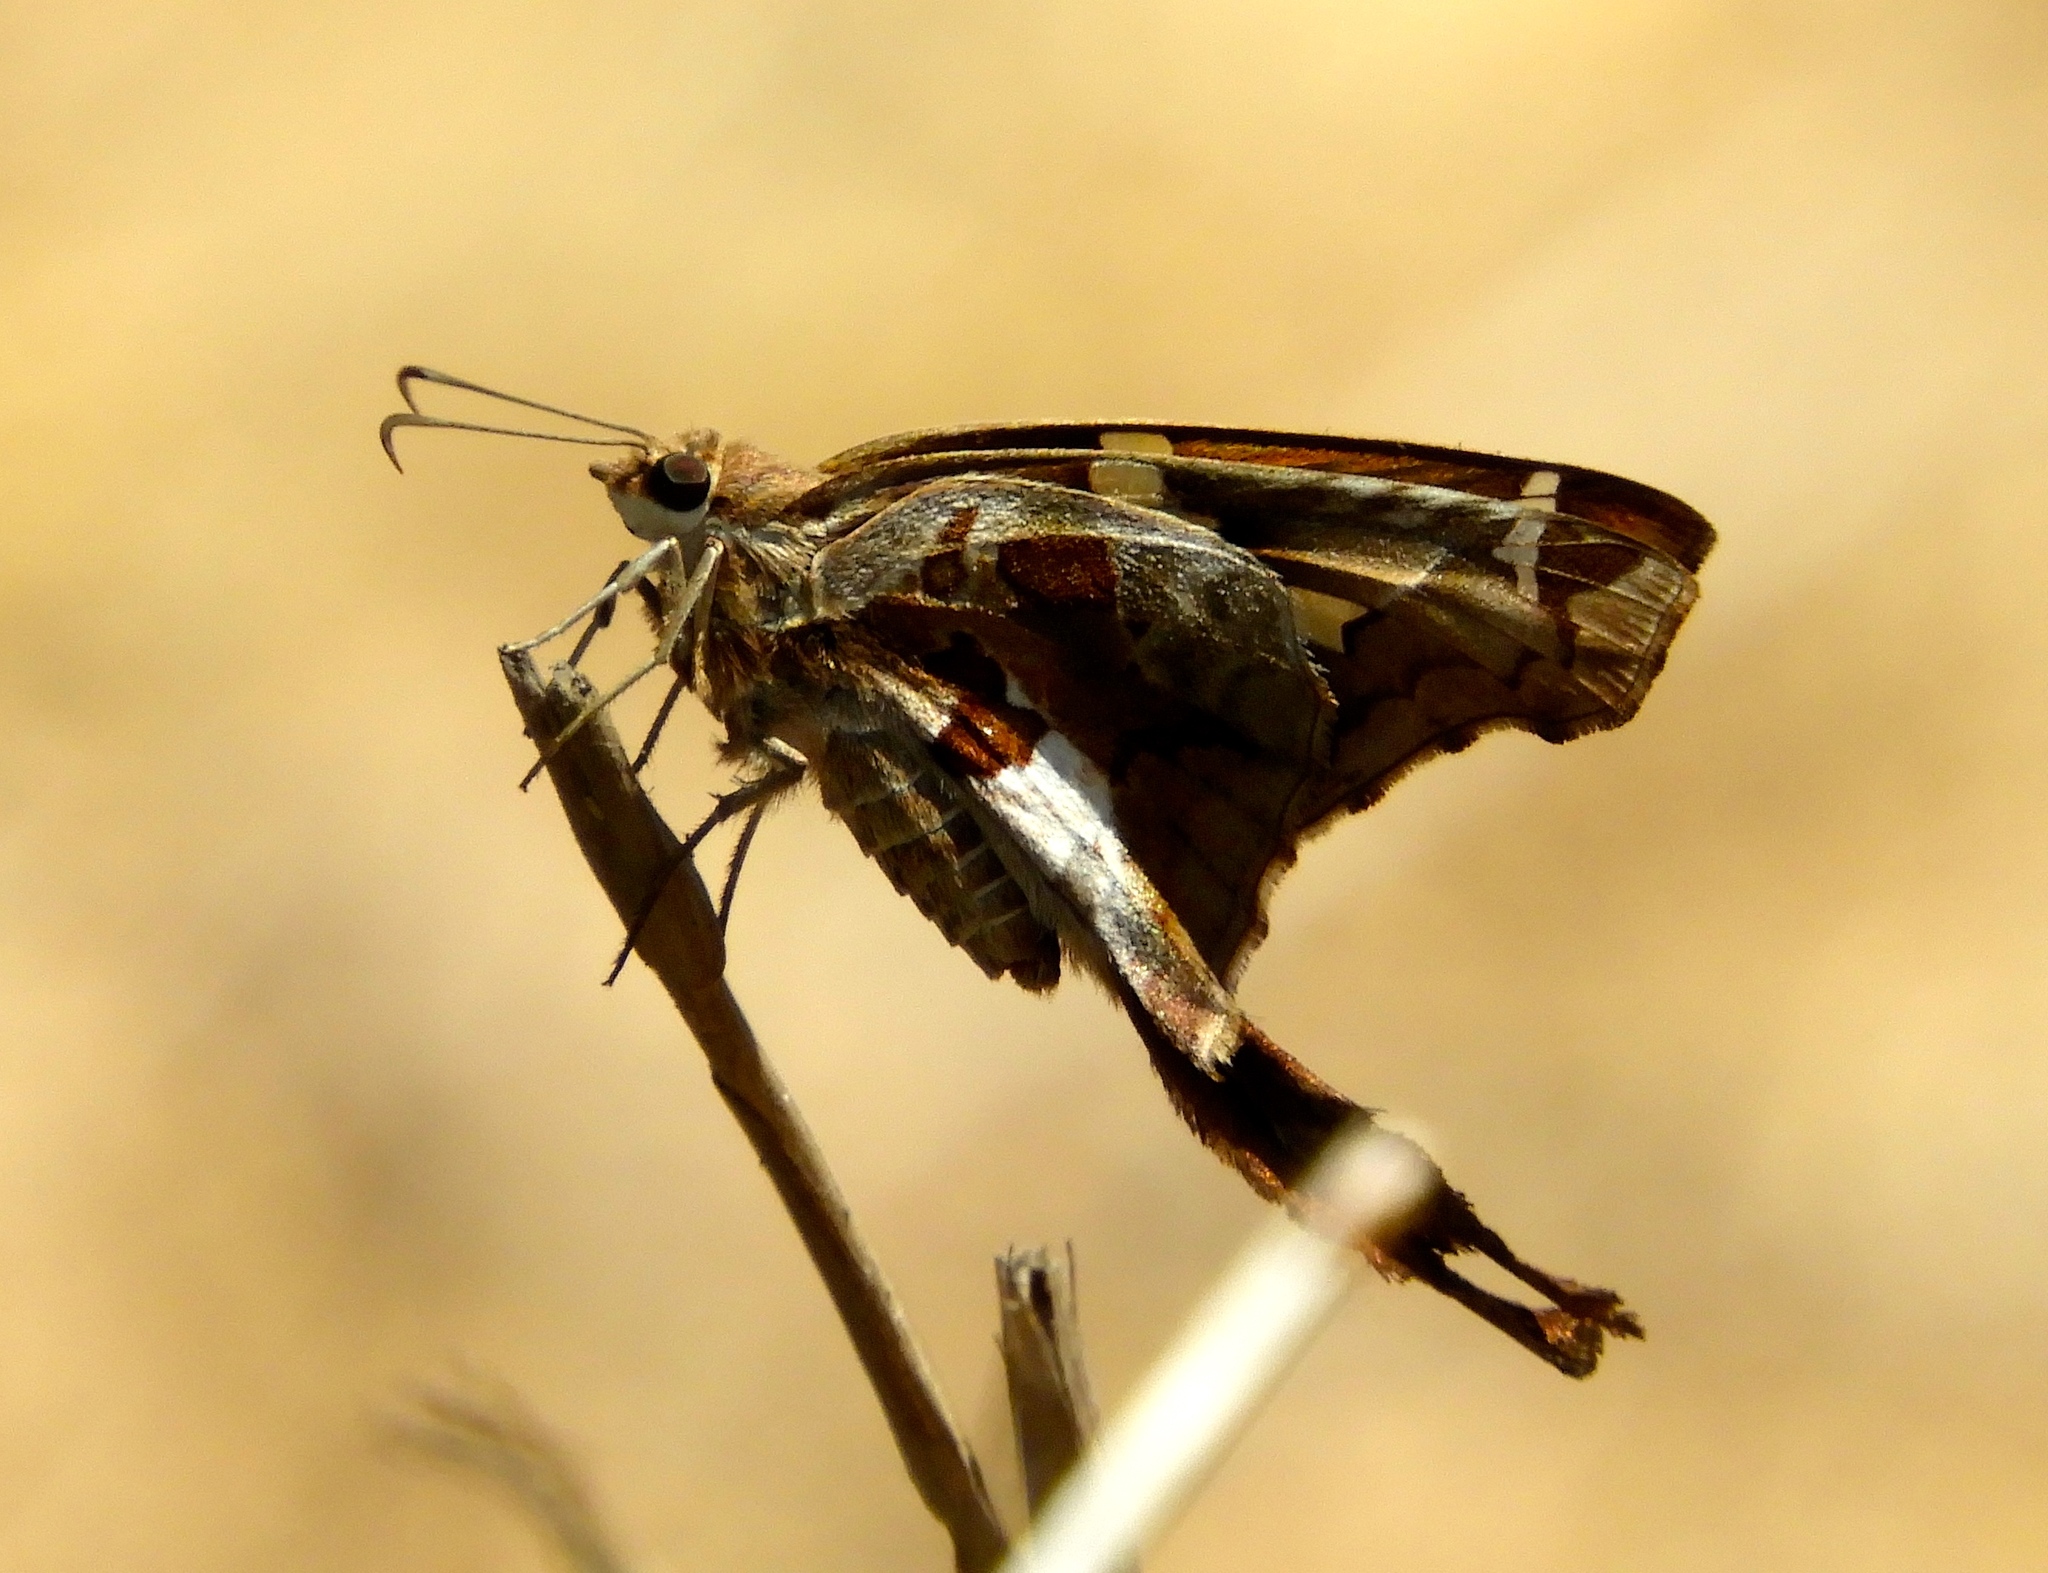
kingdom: Animalia
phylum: Arthropoda
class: Insecta
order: Lepidoptera
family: Hesperiidae
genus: Chioides
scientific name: Chioides zilpa
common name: Zilpa longtail
